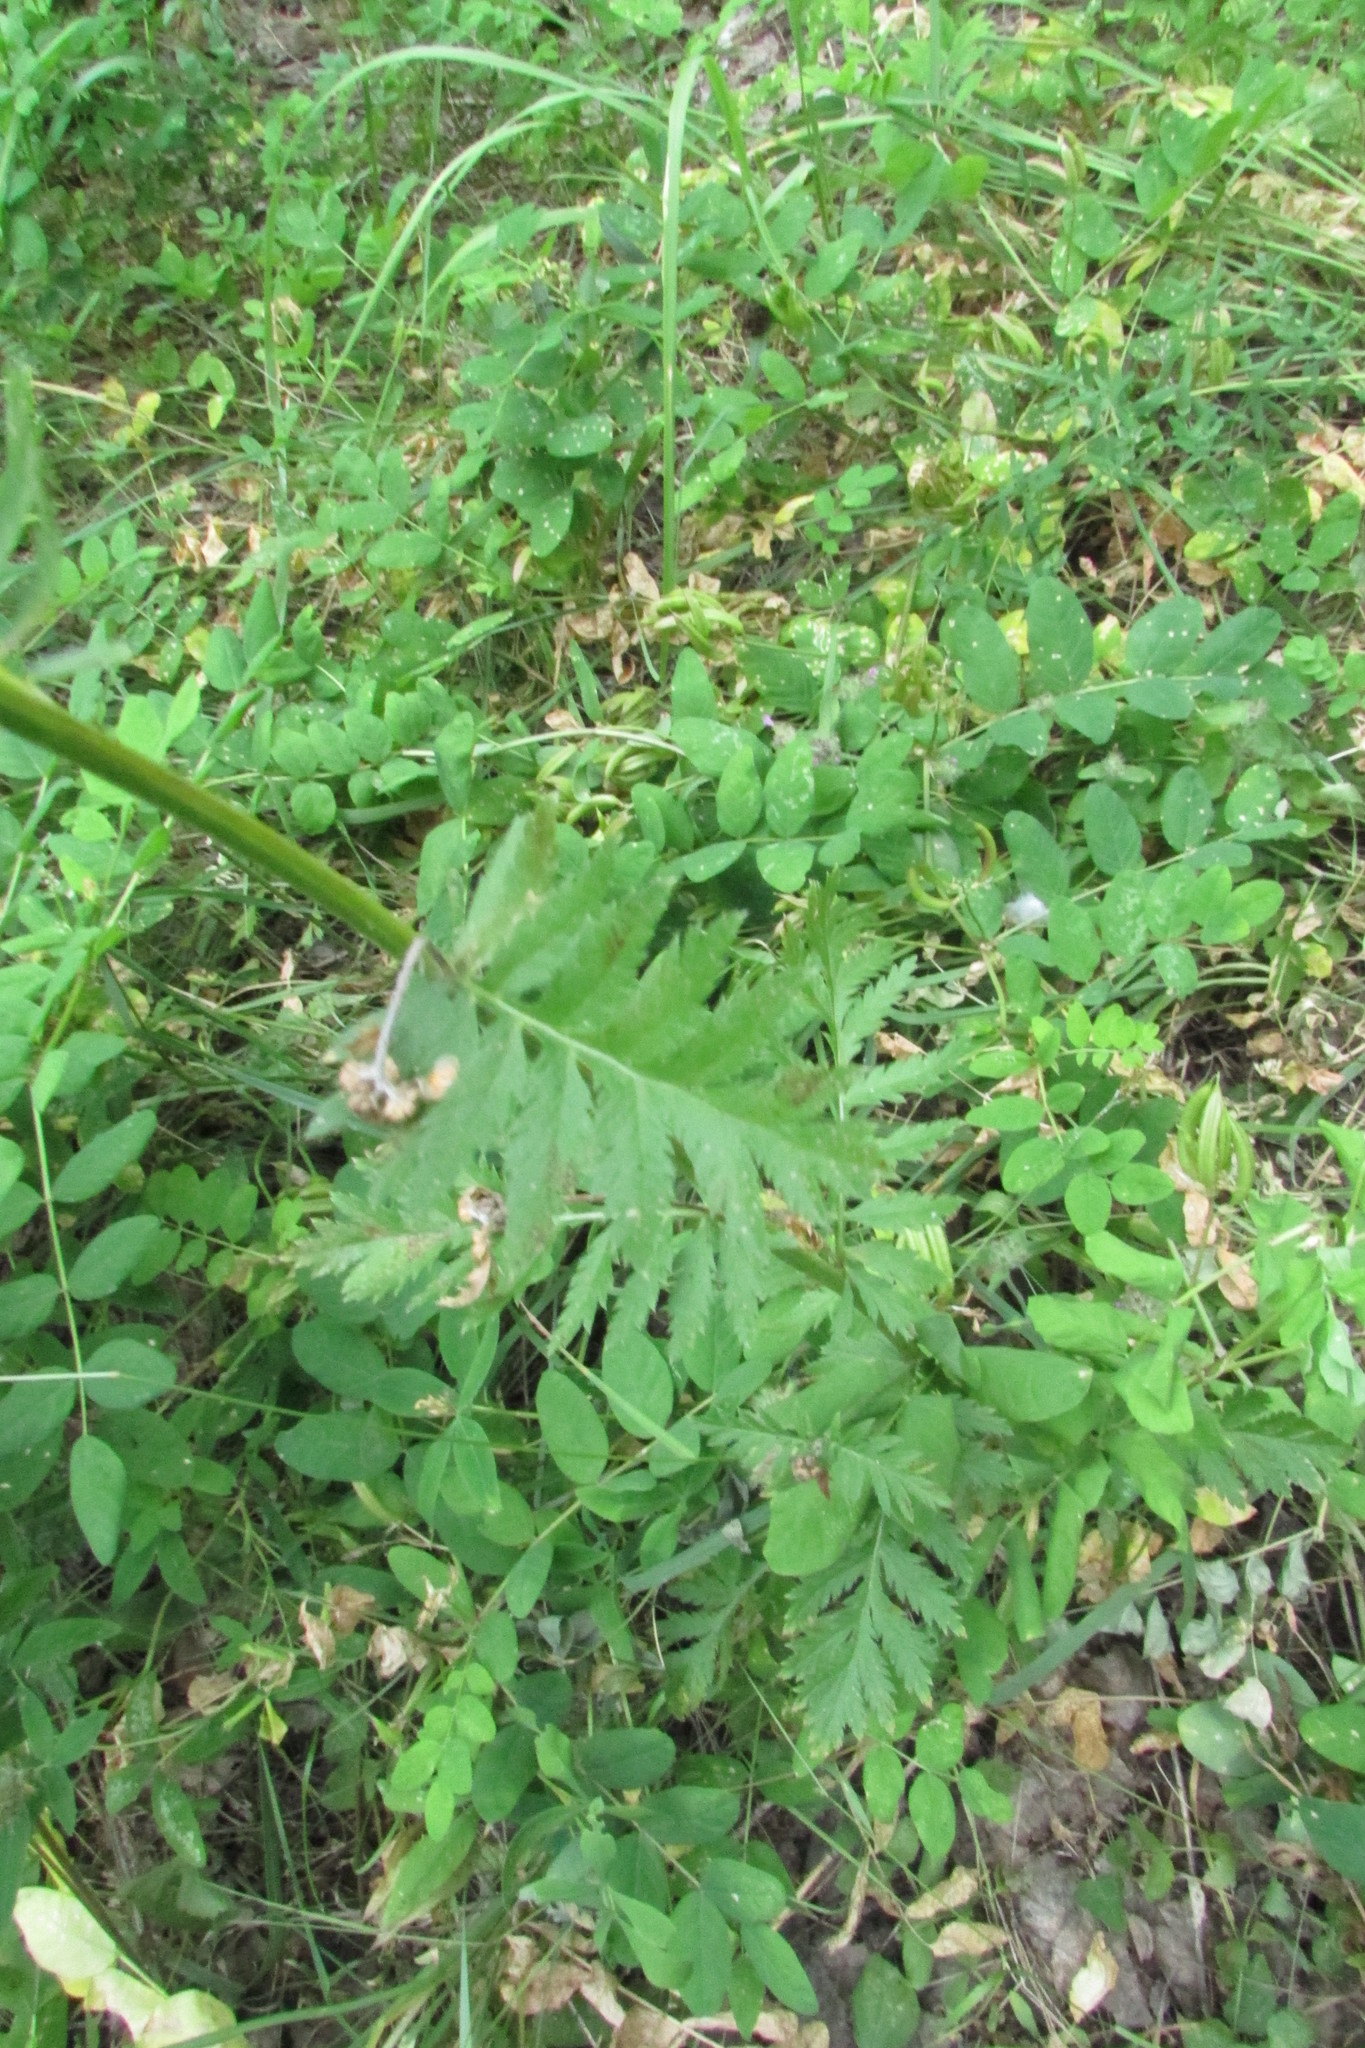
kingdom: Plantae
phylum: Tracheophyta
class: Magnoliopsida
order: Asterales
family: Asteraceae
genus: Tanacetum
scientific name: Tanacetum corymbosum
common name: Scentless feverfew
